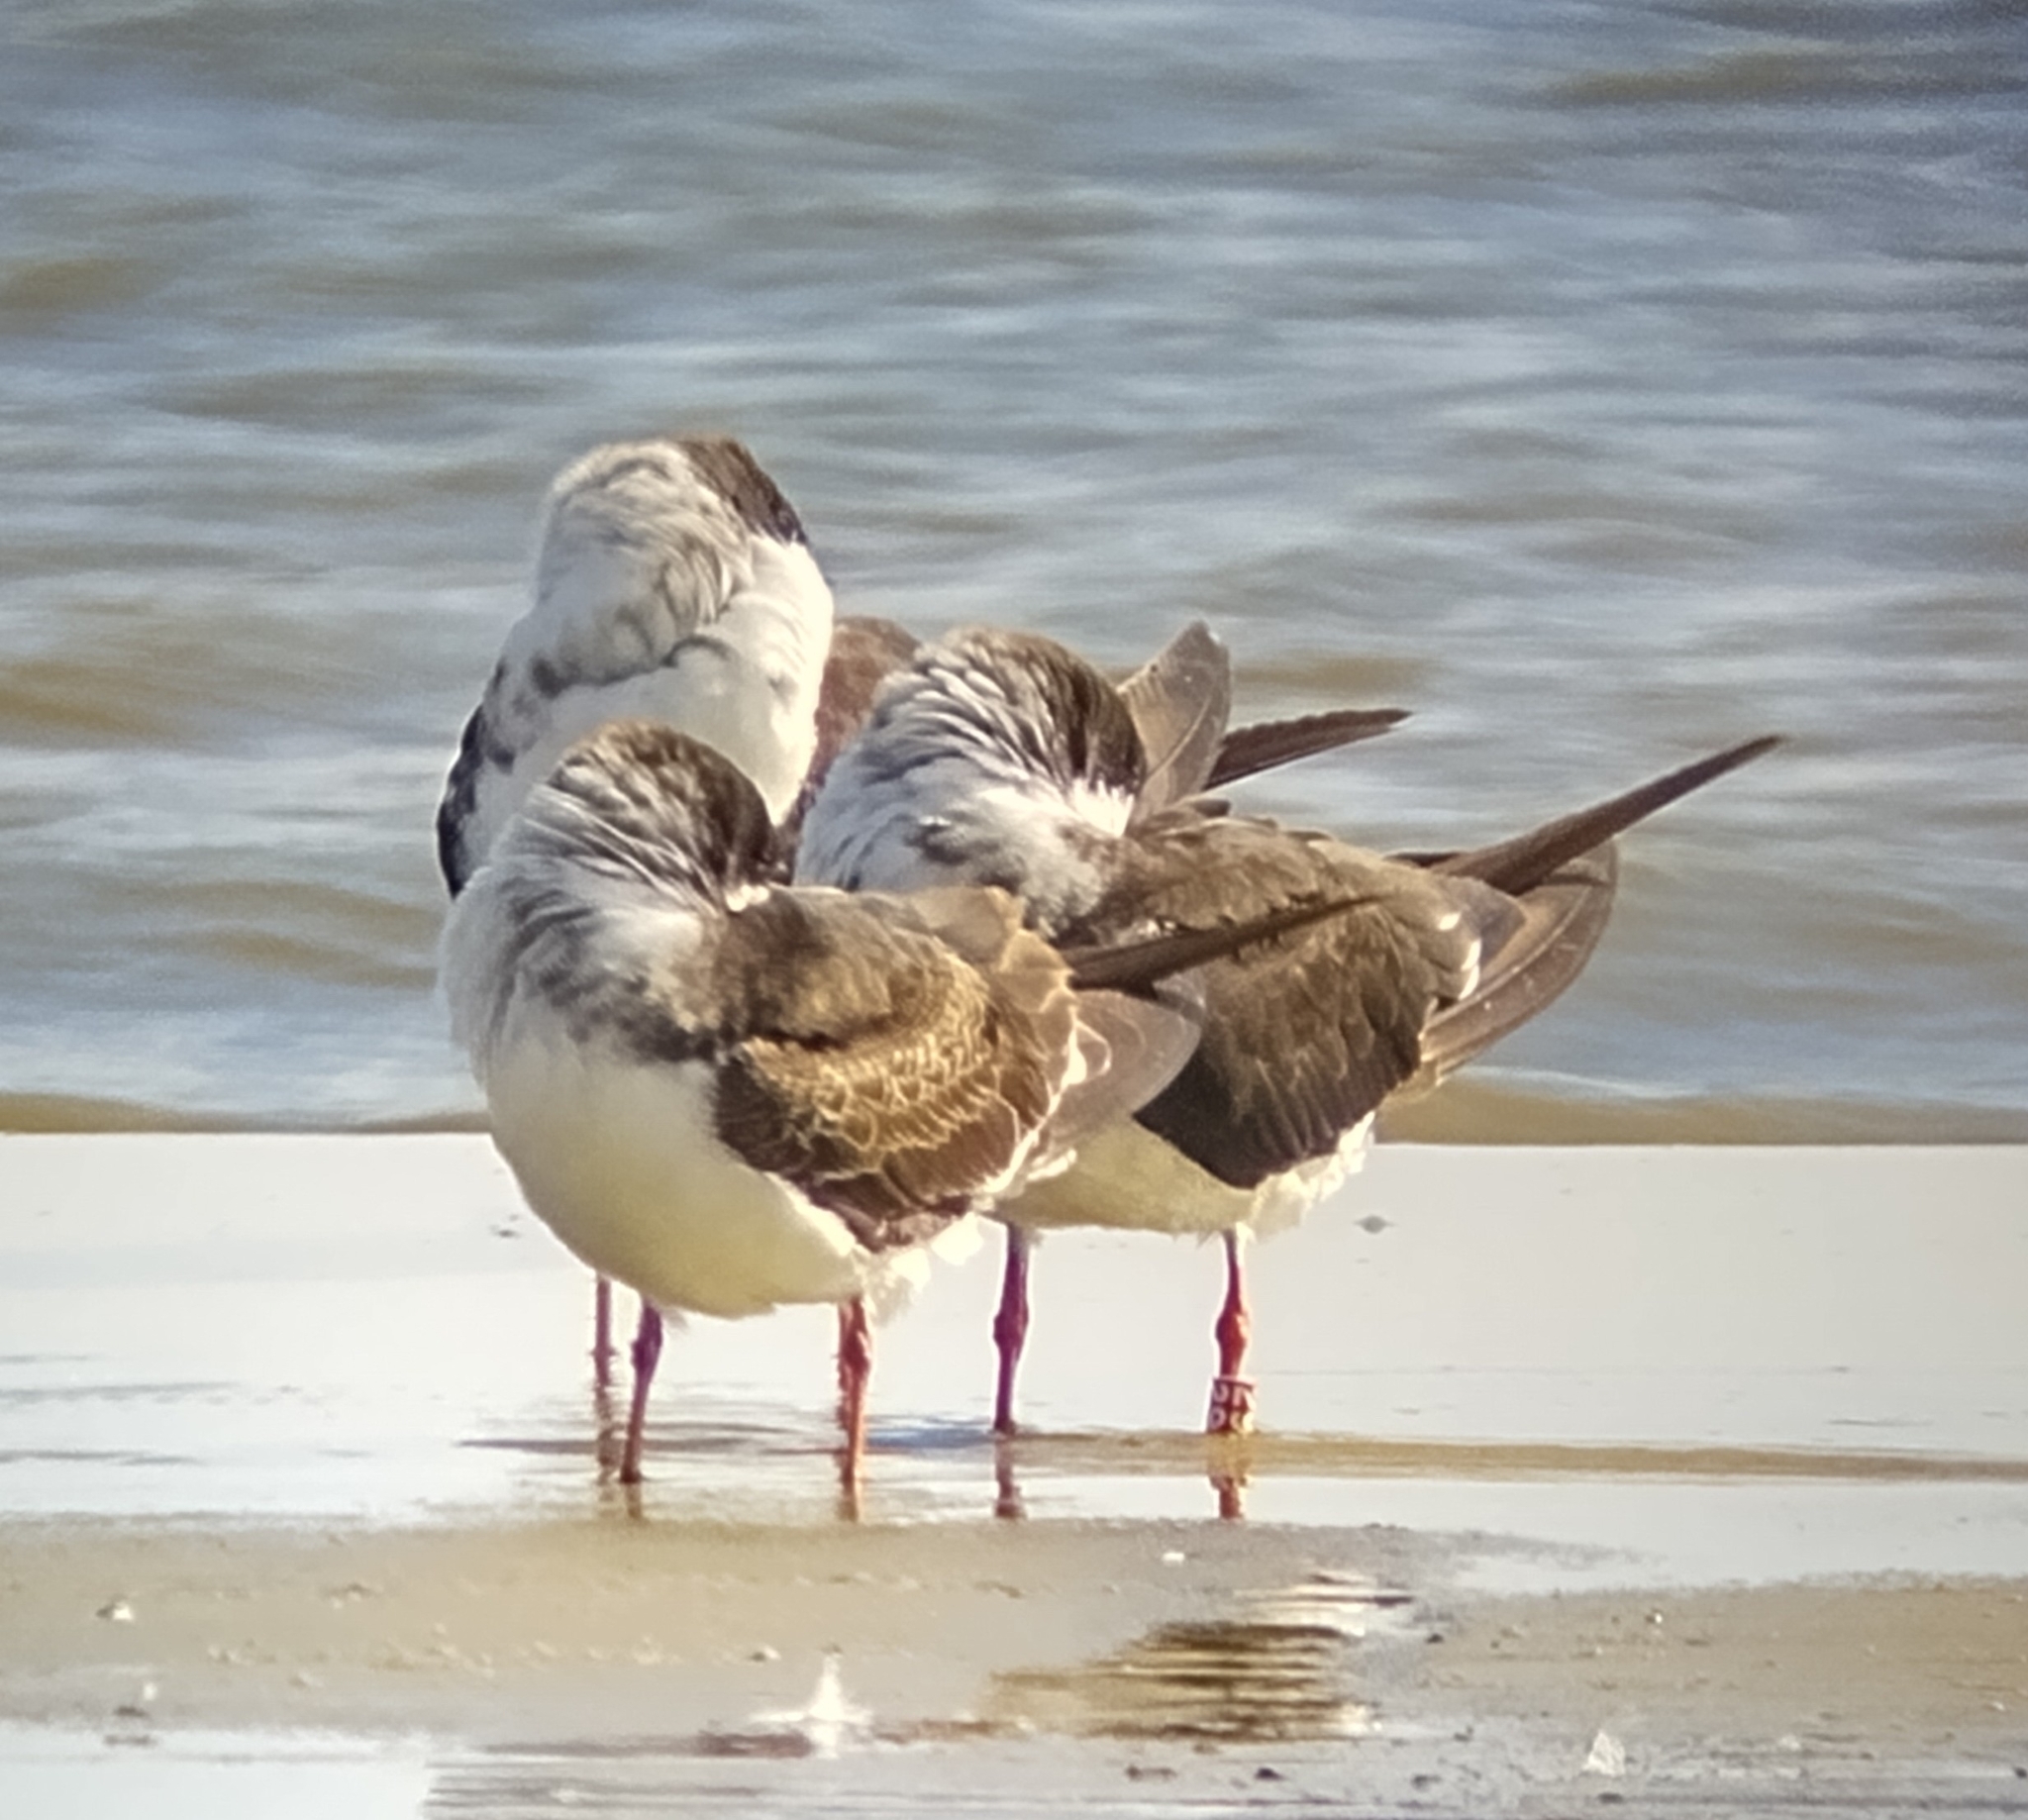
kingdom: Animalia
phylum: Chordata
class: Aves
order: Charadriiformes
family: Laridae
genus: Rynchops
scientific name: Rynchops niger
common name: Black skimmer
